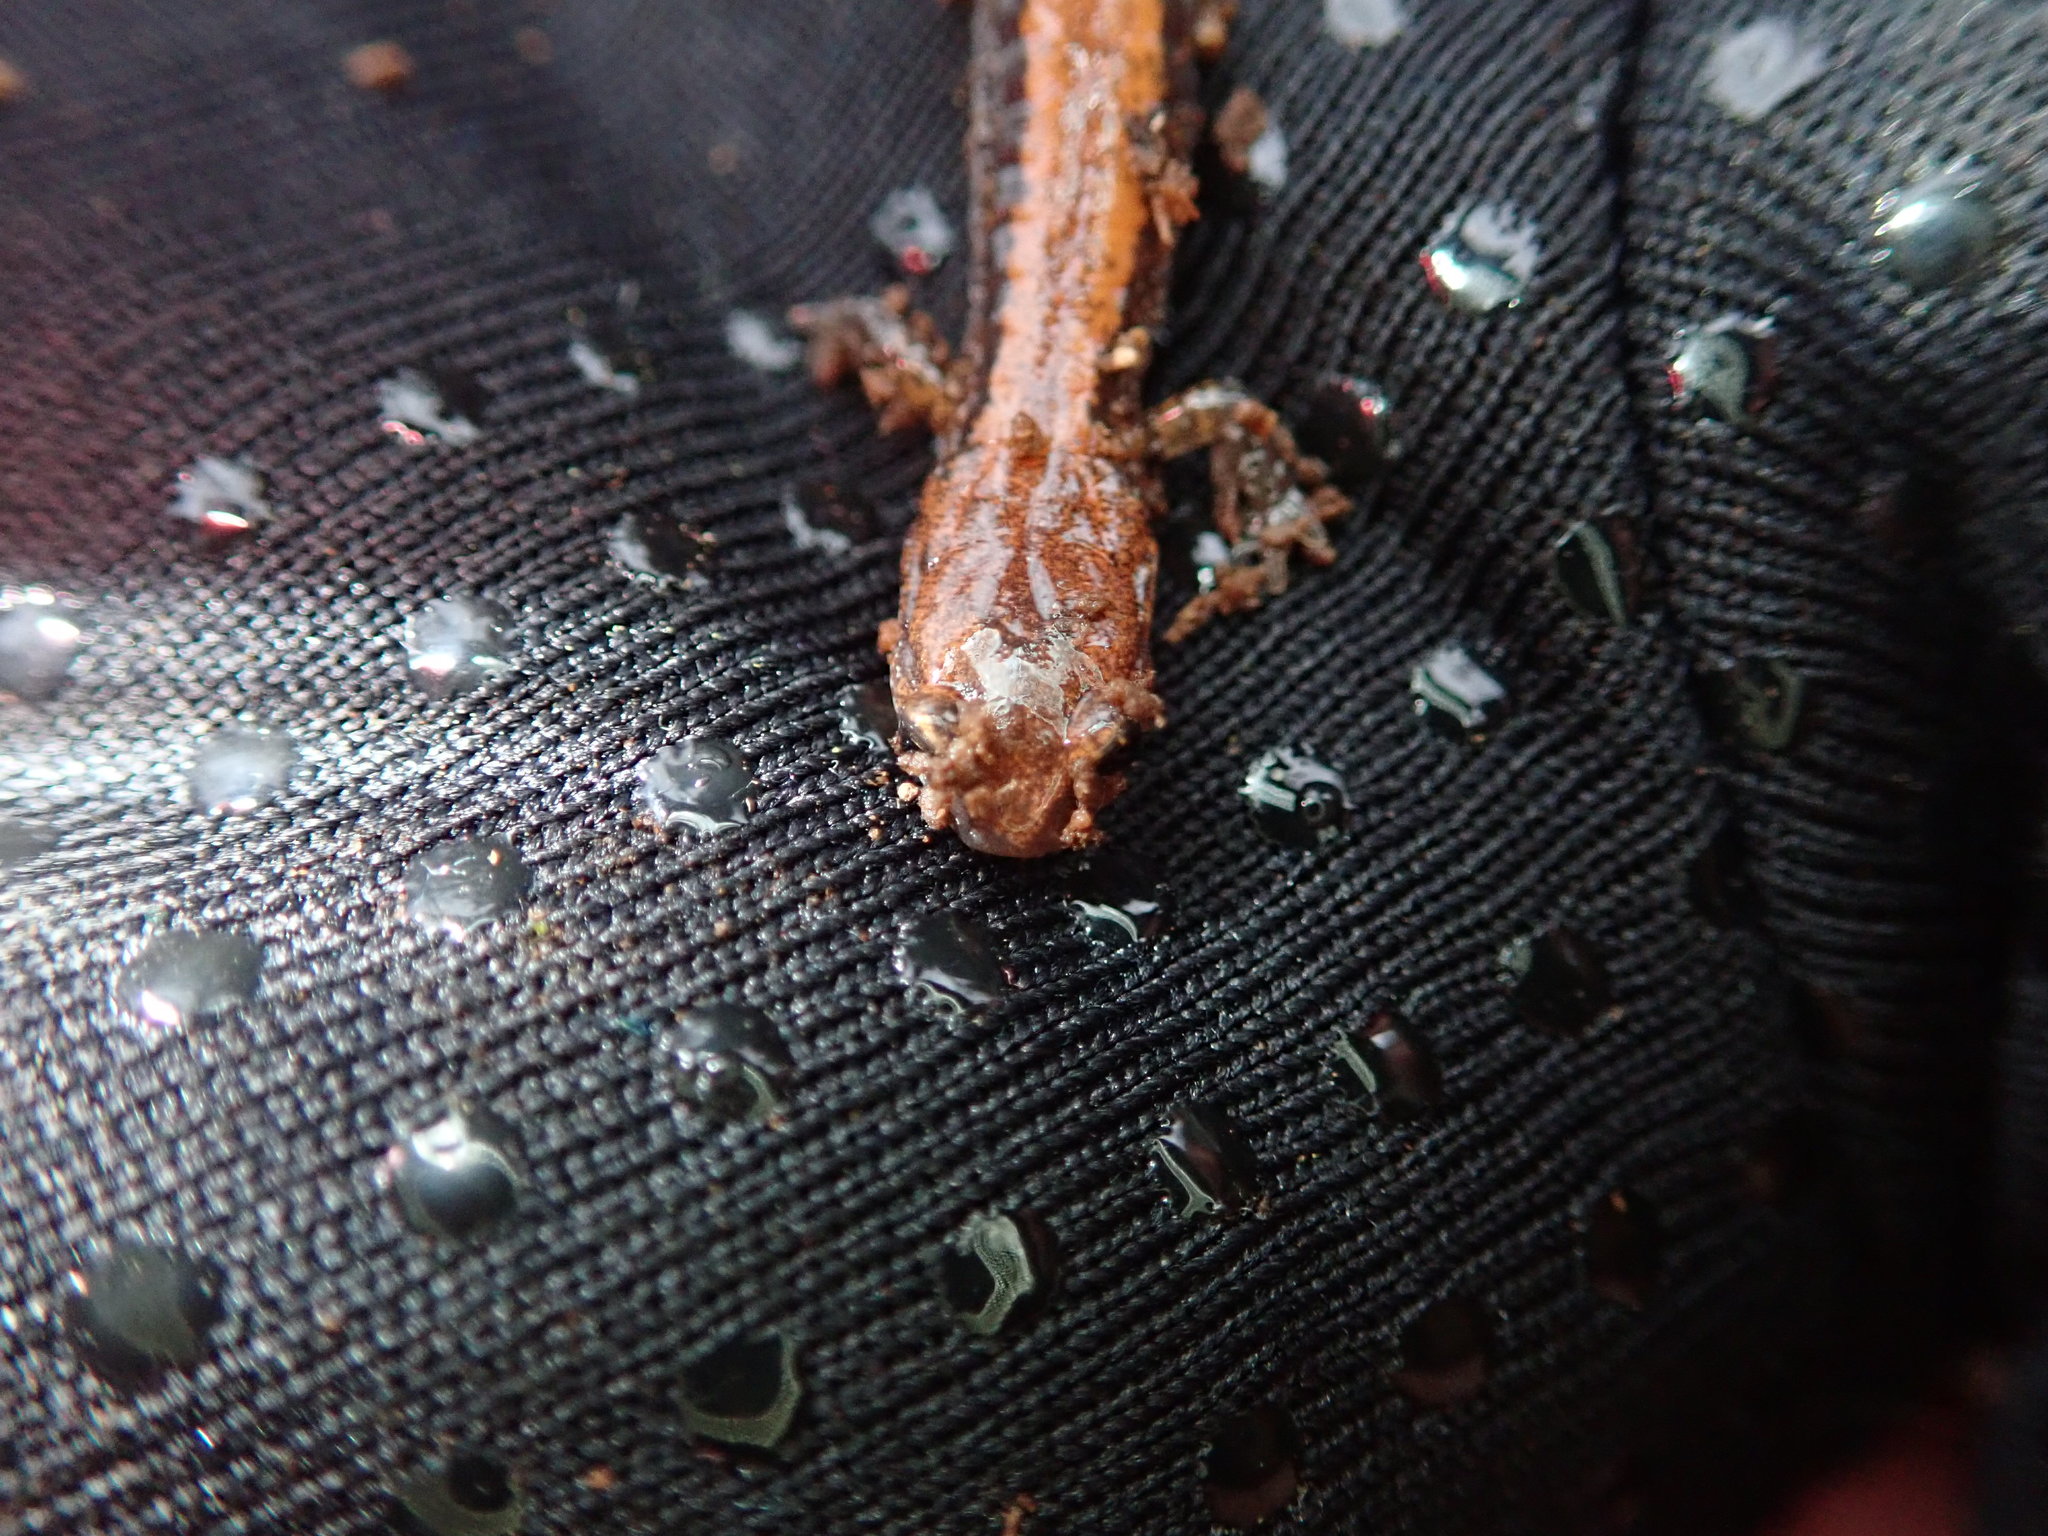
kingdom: Animalia
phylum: Chordata
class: Amphibia
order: Caudata
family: Plethodontidae
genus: Plethodon
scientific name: Plethodon cinereus
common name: Redback salamander
